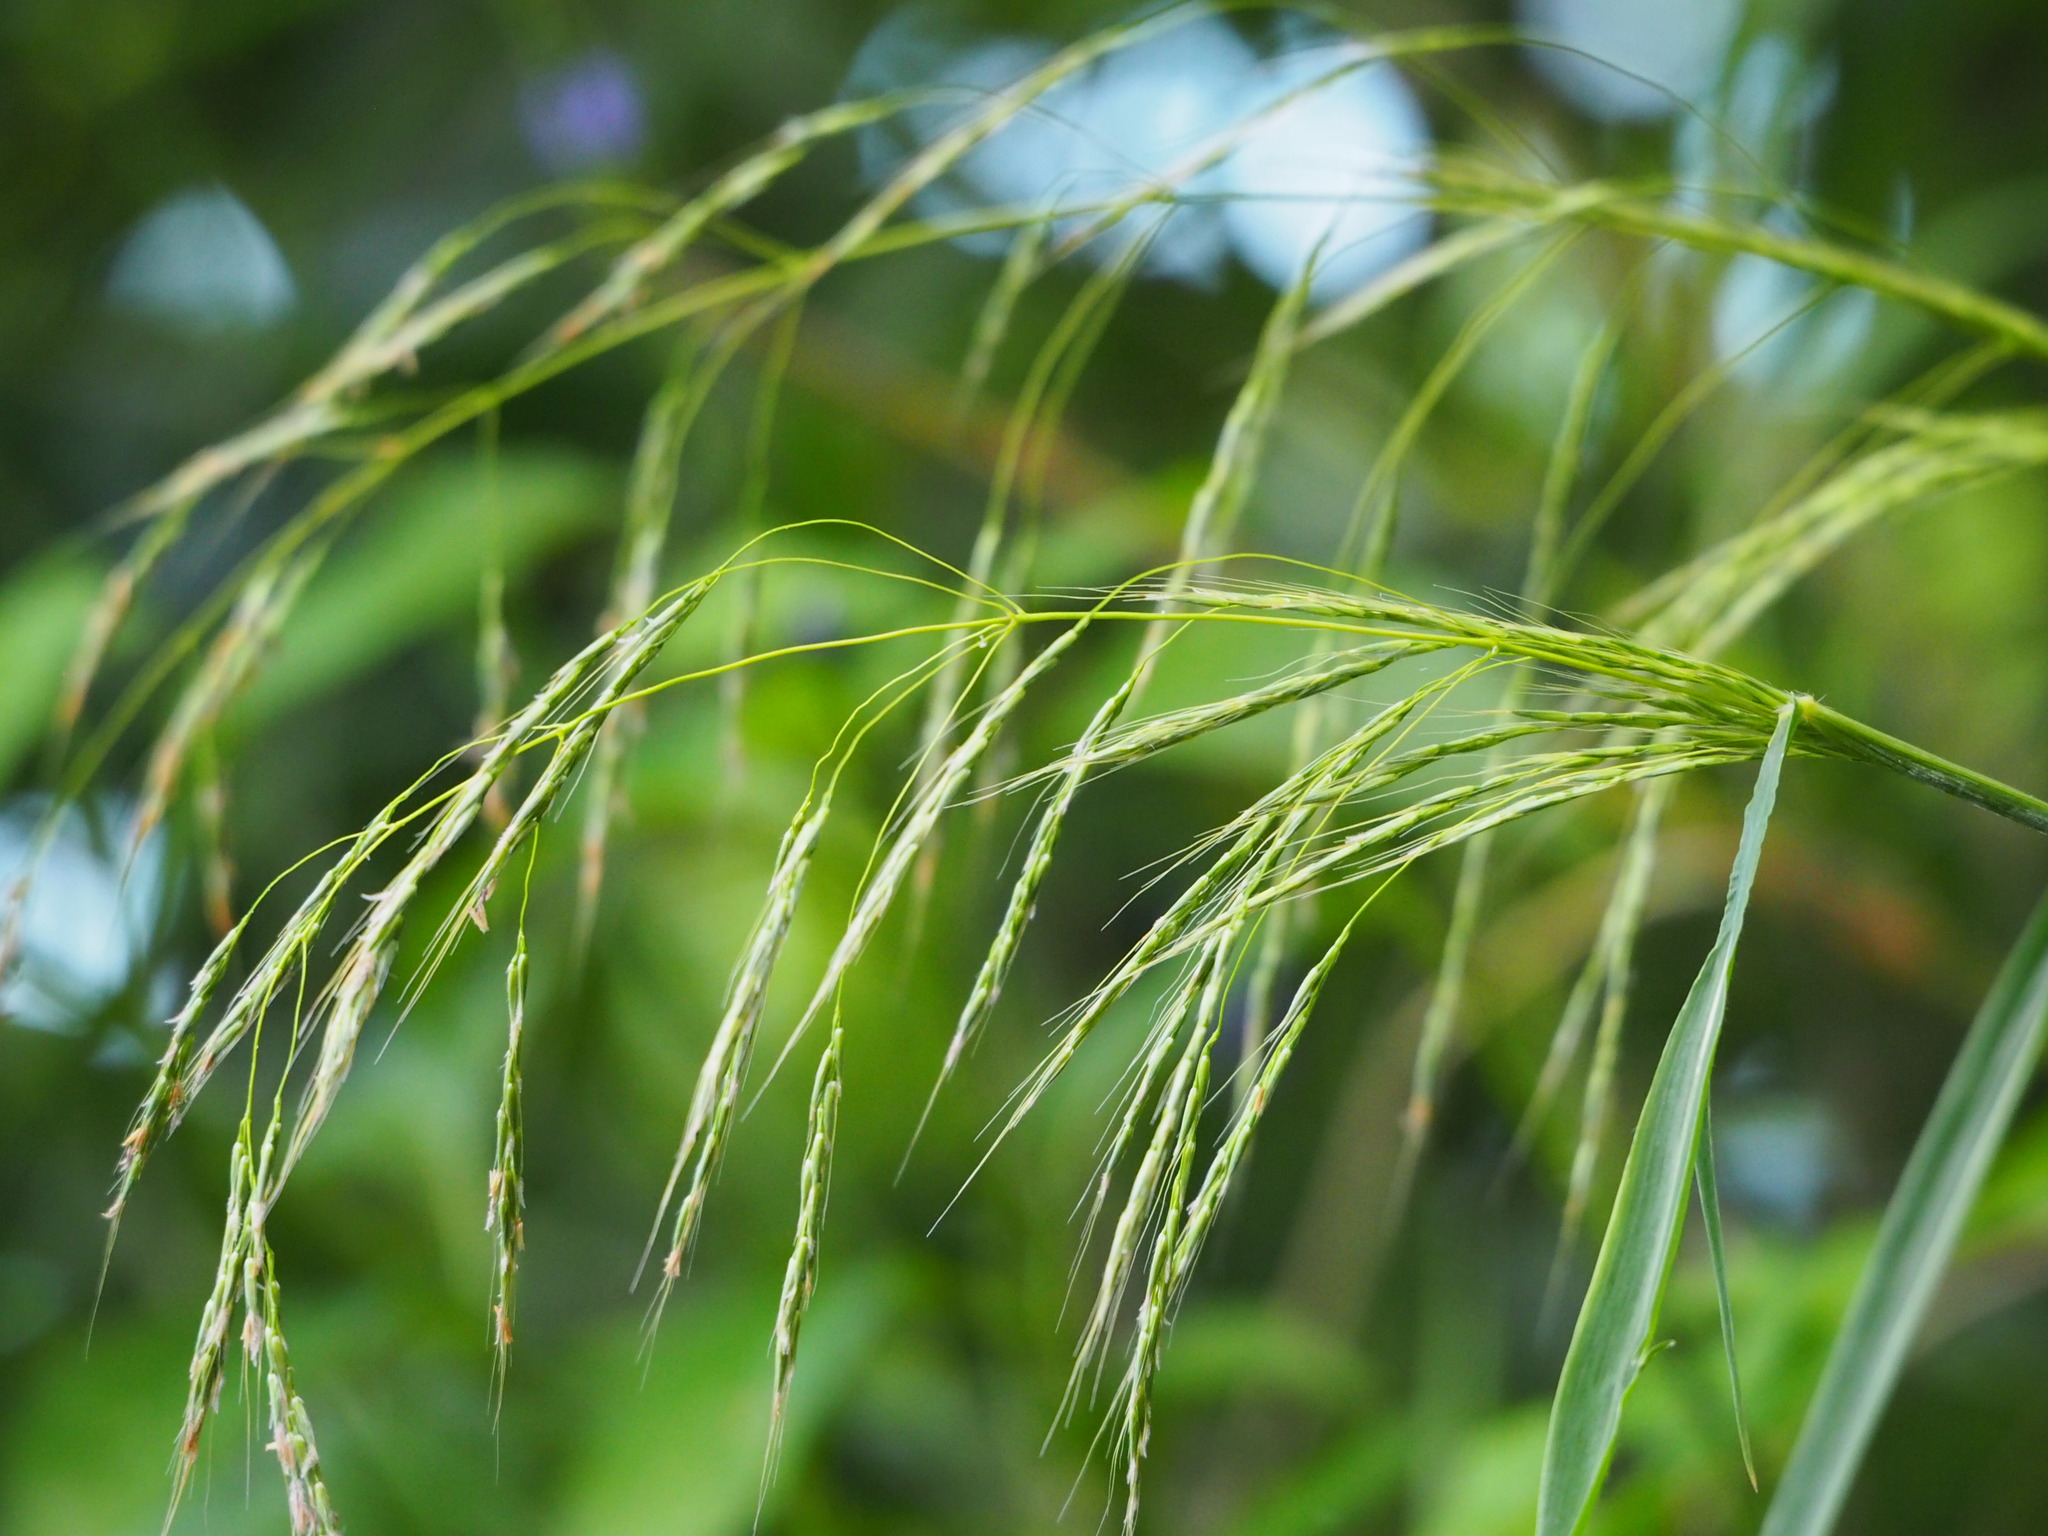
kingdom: Plantae
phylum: Tracheophyta
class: Liliopsida
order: Poales
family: Poaceae
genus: Spodiopogon
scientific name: Spodiopogon cotulifer
